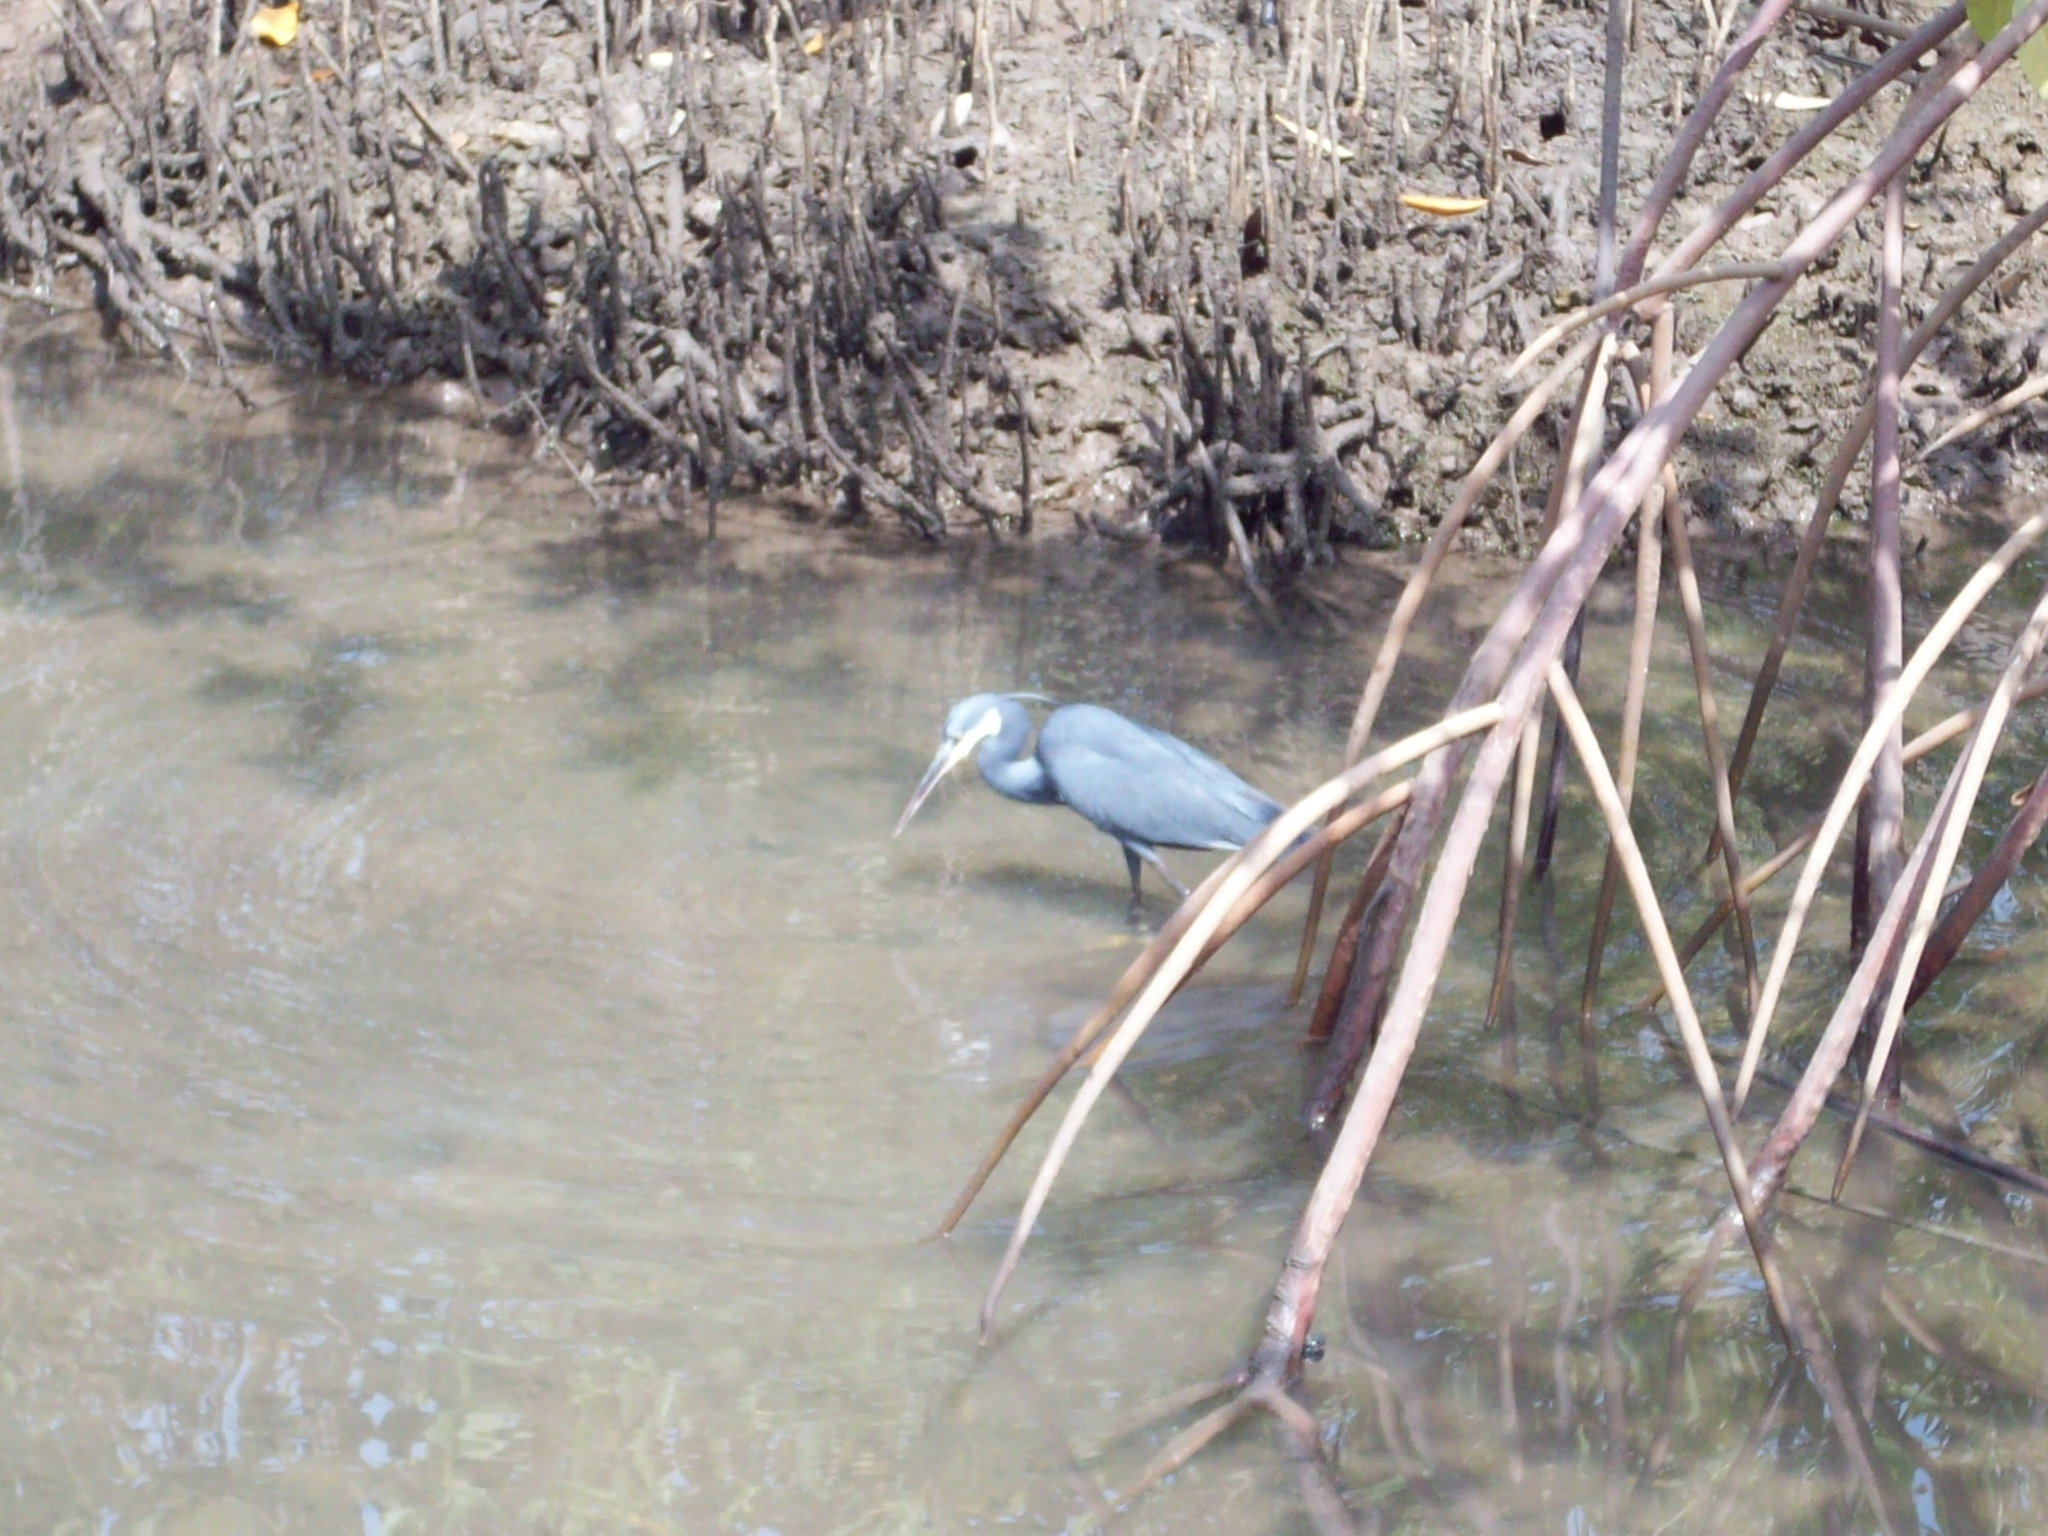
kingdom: Animalia
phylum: Chordata
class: Aves
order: Pelecaniformes
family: Ardeidae
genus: Egretta
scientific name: Egretta gularis
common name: Western reef-heron
